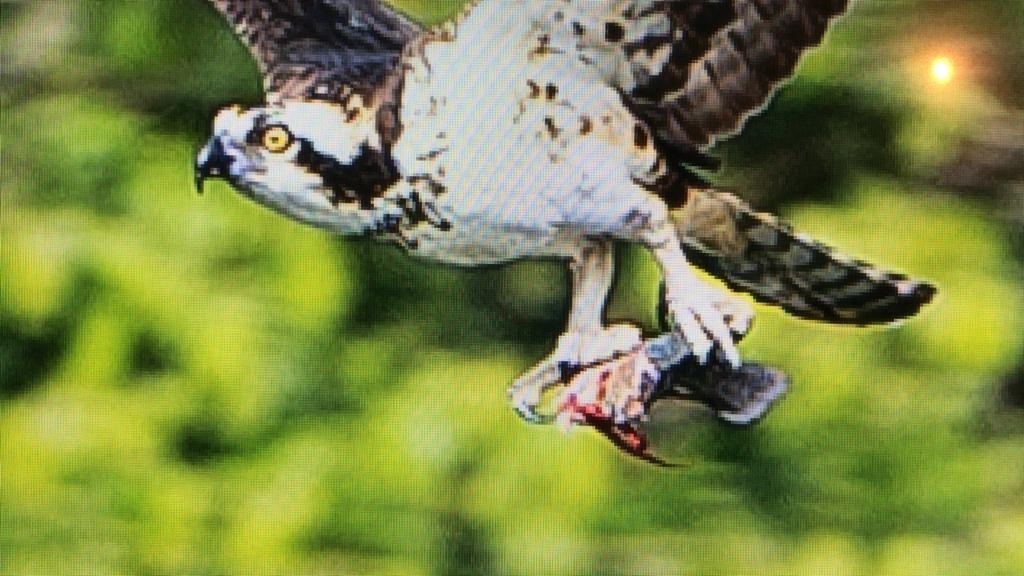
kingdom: Animalia
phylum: Chordata
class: Aves
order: Accipitriformes
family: Pandionidae
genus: Pandion
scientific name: Pandion haliaetus
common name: Osprey
